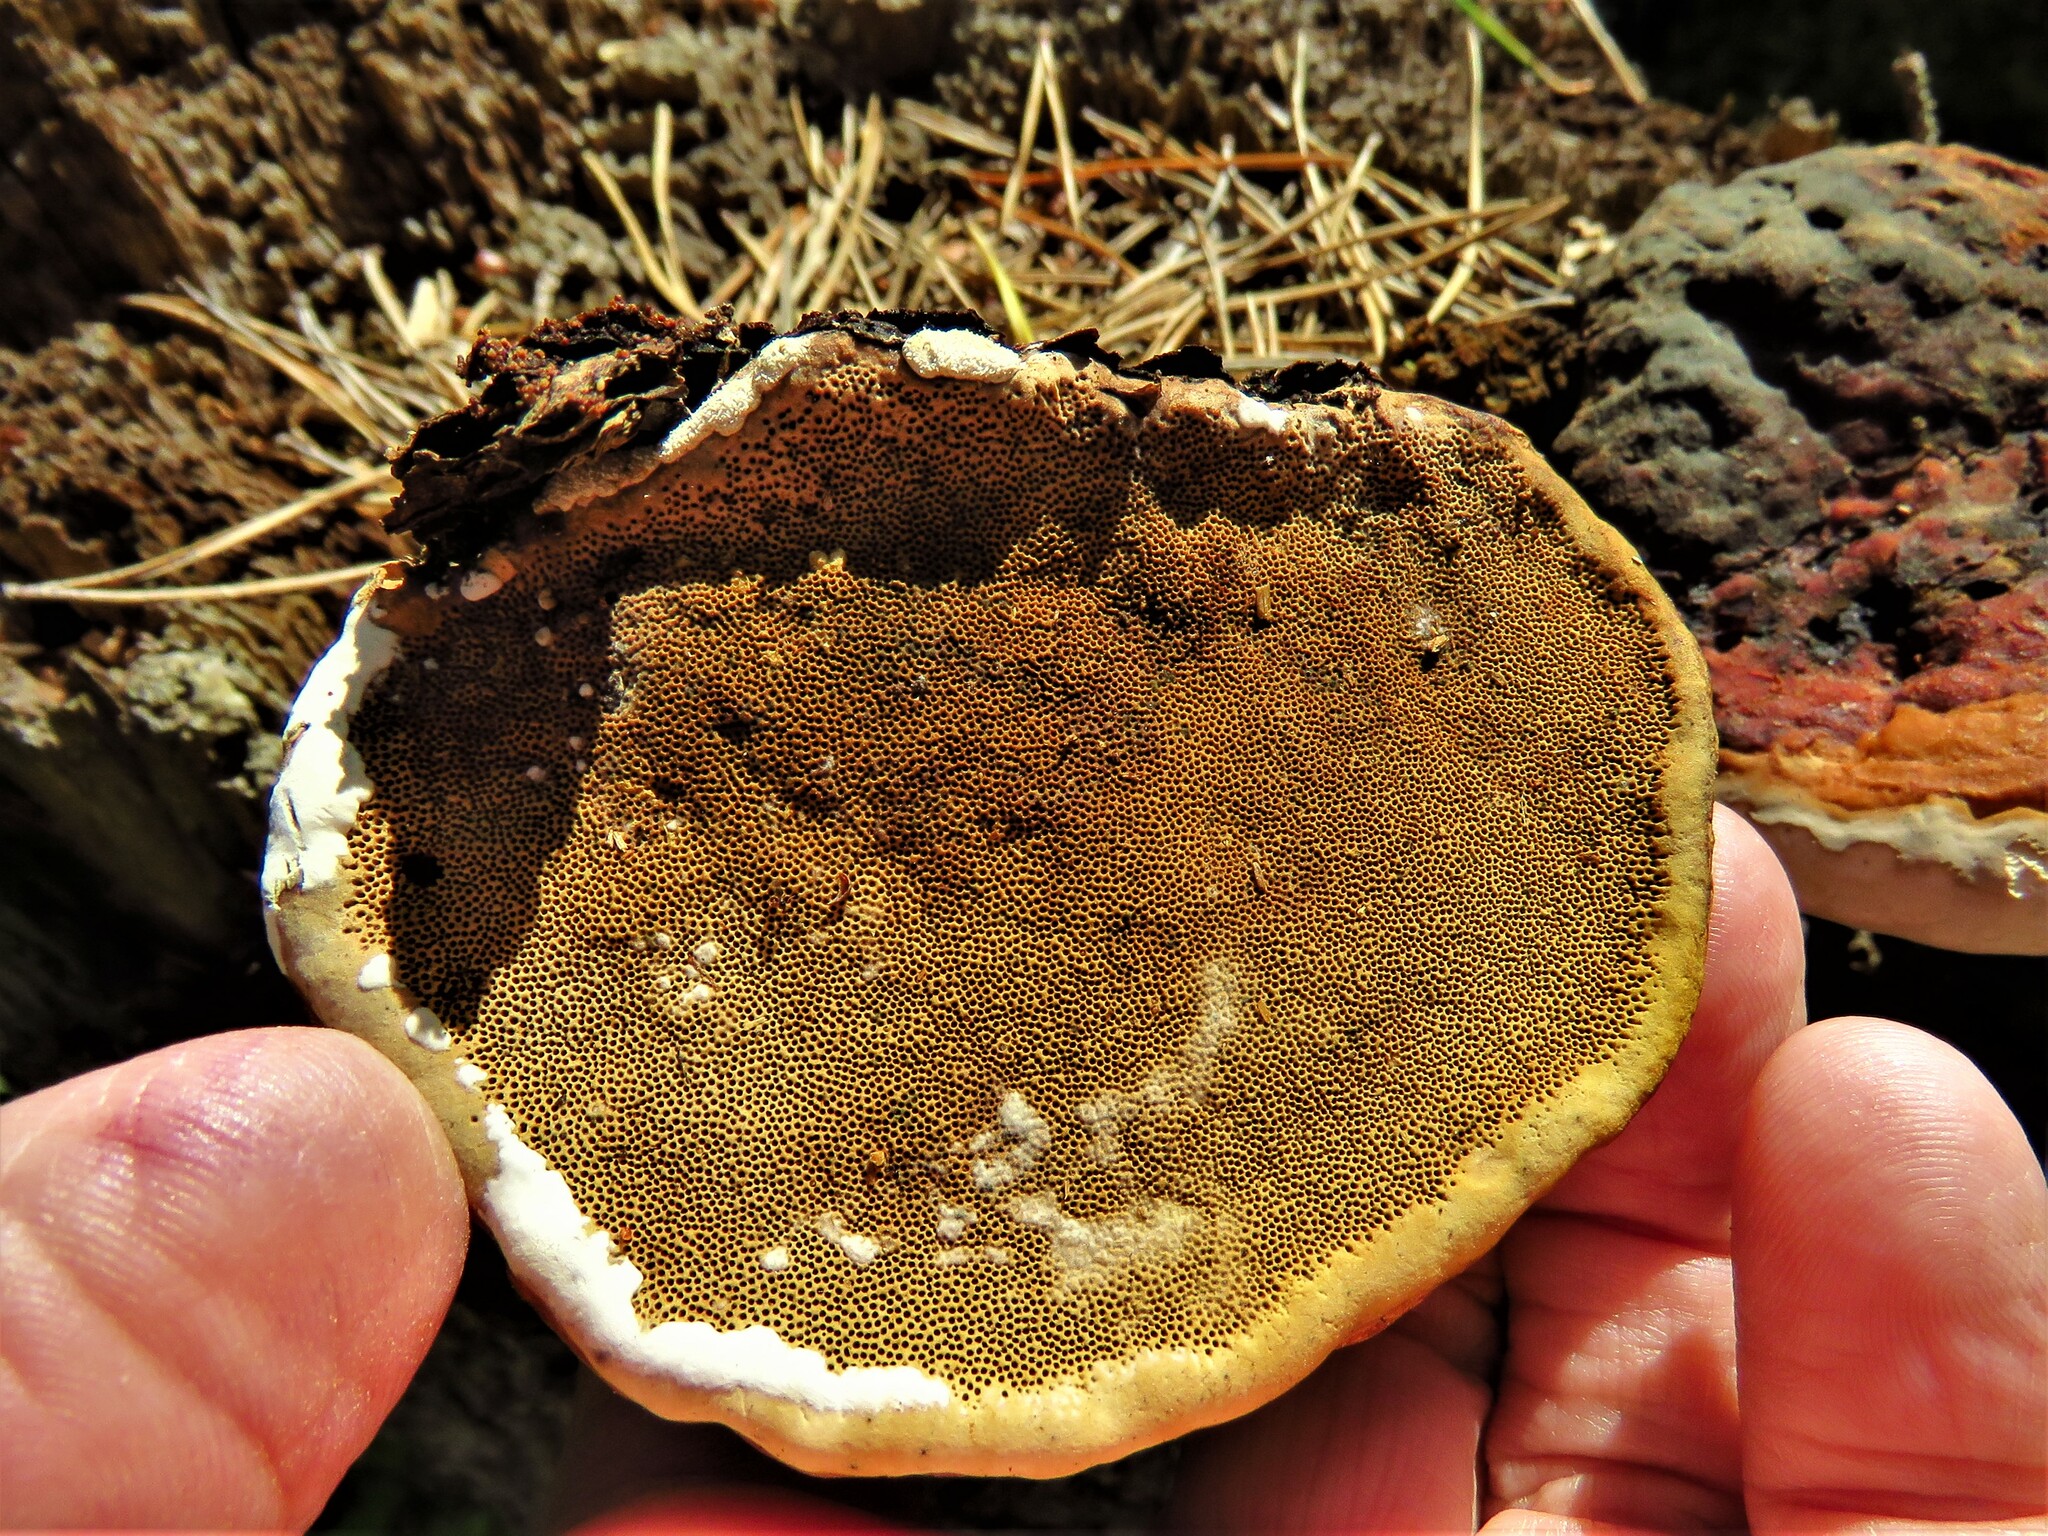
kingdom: Fungi
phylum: Basidiomycota
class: Agaricomycetes
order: Polyporales
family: Fomitopsidaceae
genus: Fomitopsis
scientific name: Fomitopsis pinicola
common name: Red-belted bracket
